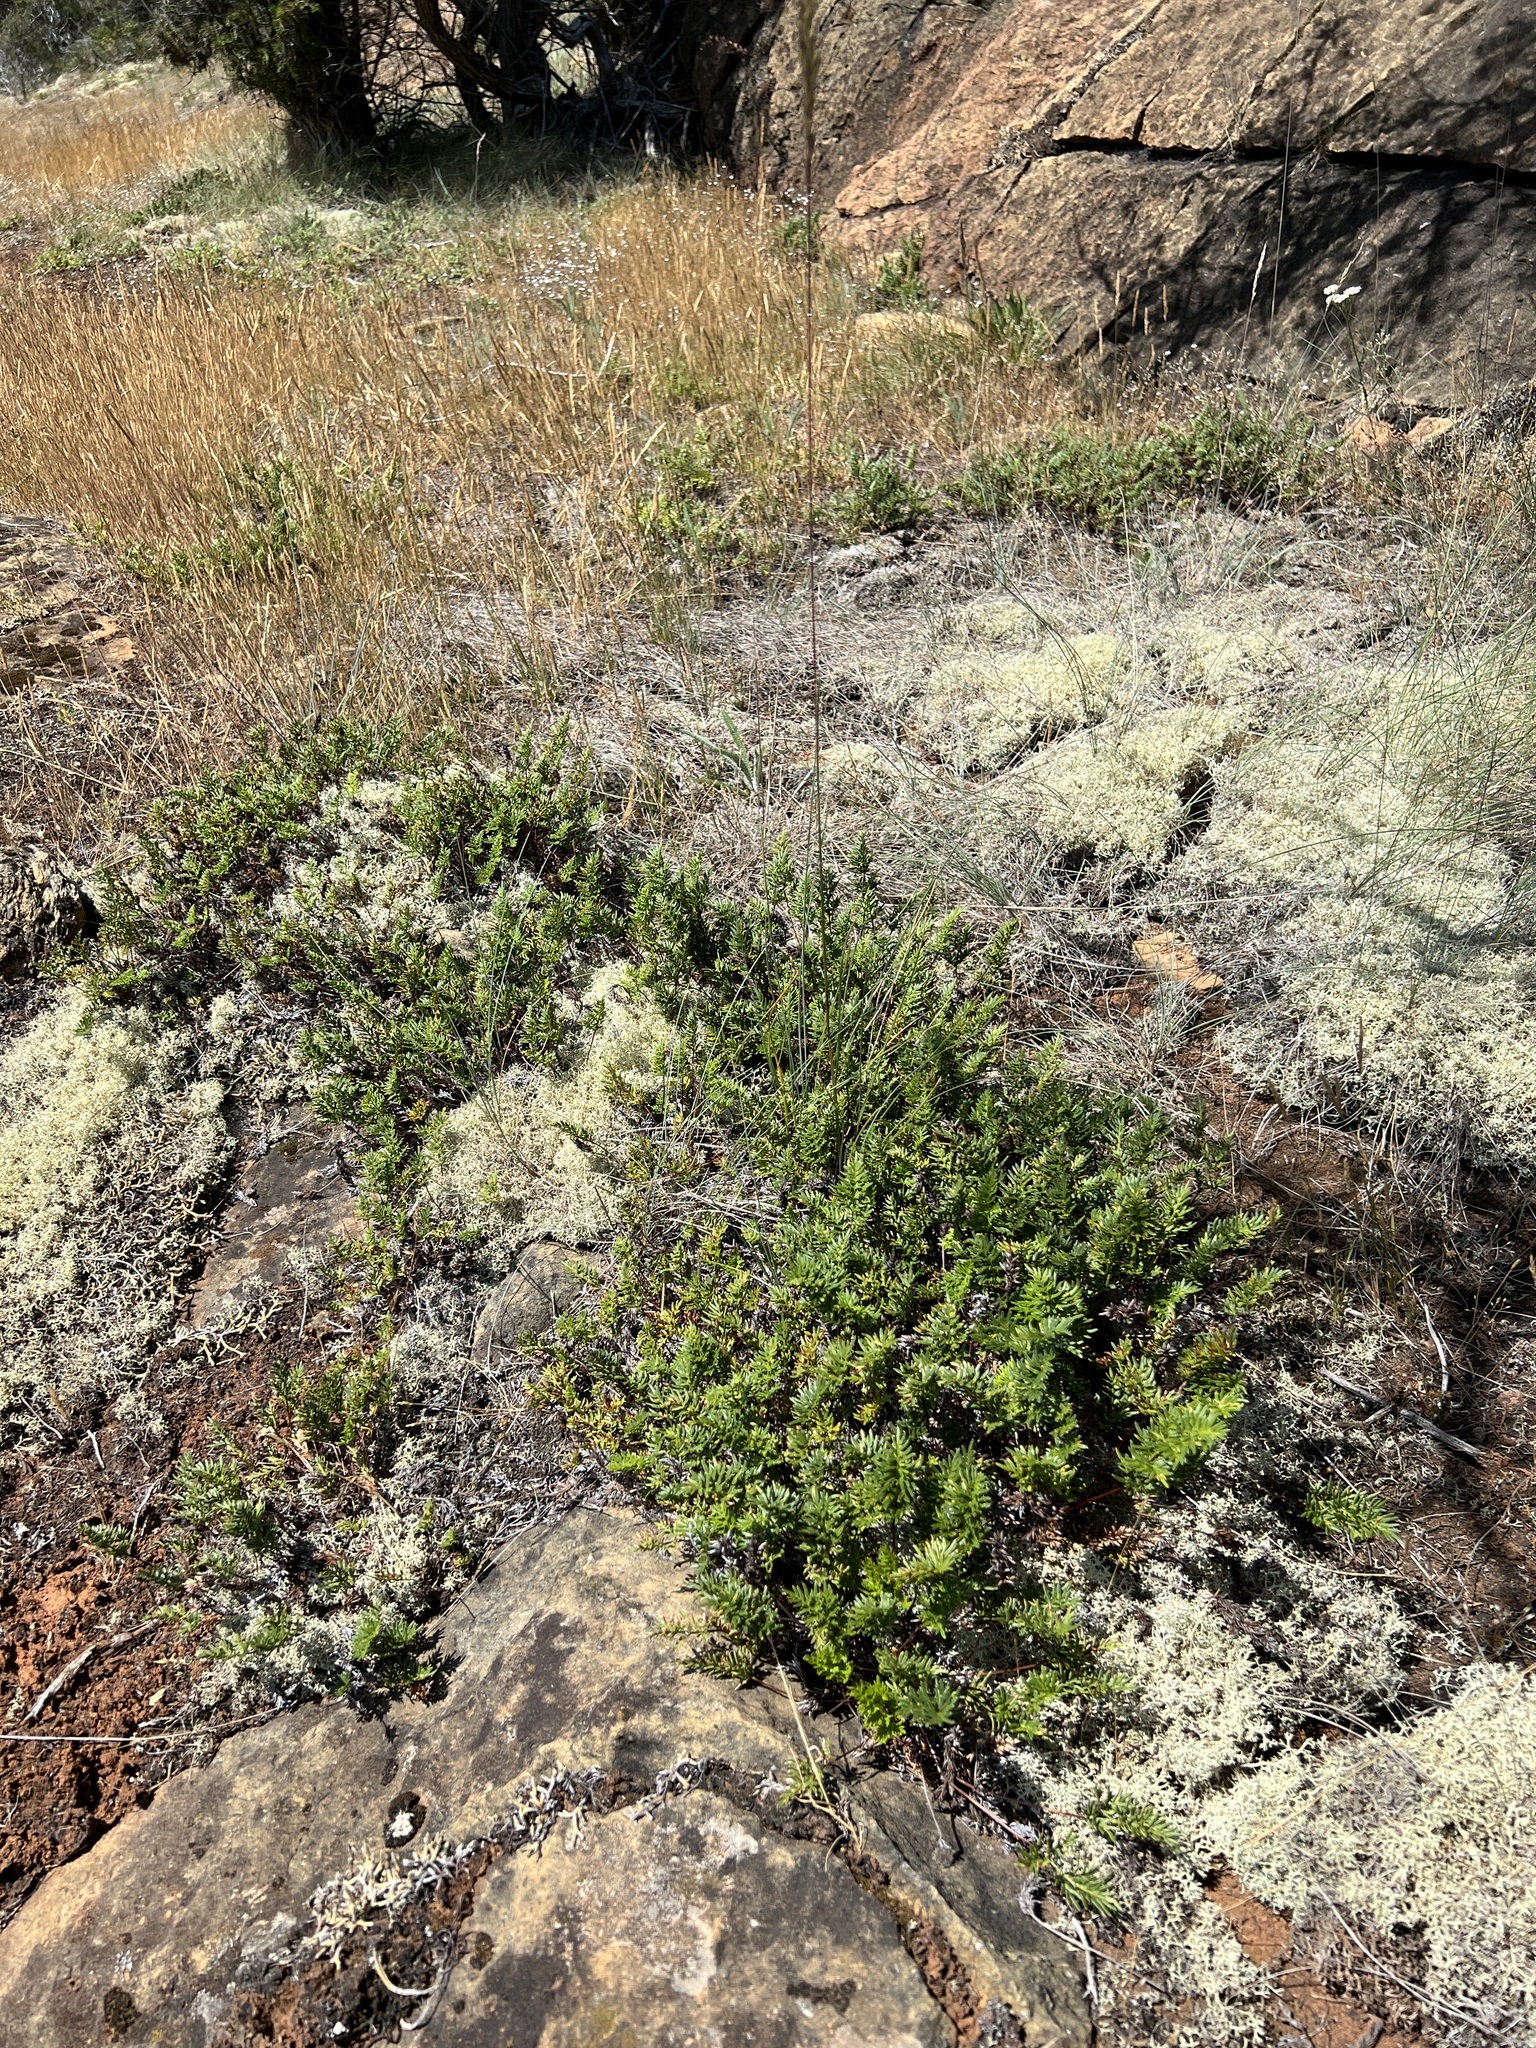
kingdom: Plantae
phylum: Tracheophyta
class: Polypodiopsida
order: Polypodiales
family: Pteridaceae
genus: Aspidotis
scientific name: Aspidotis densa
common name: Indian's dream
